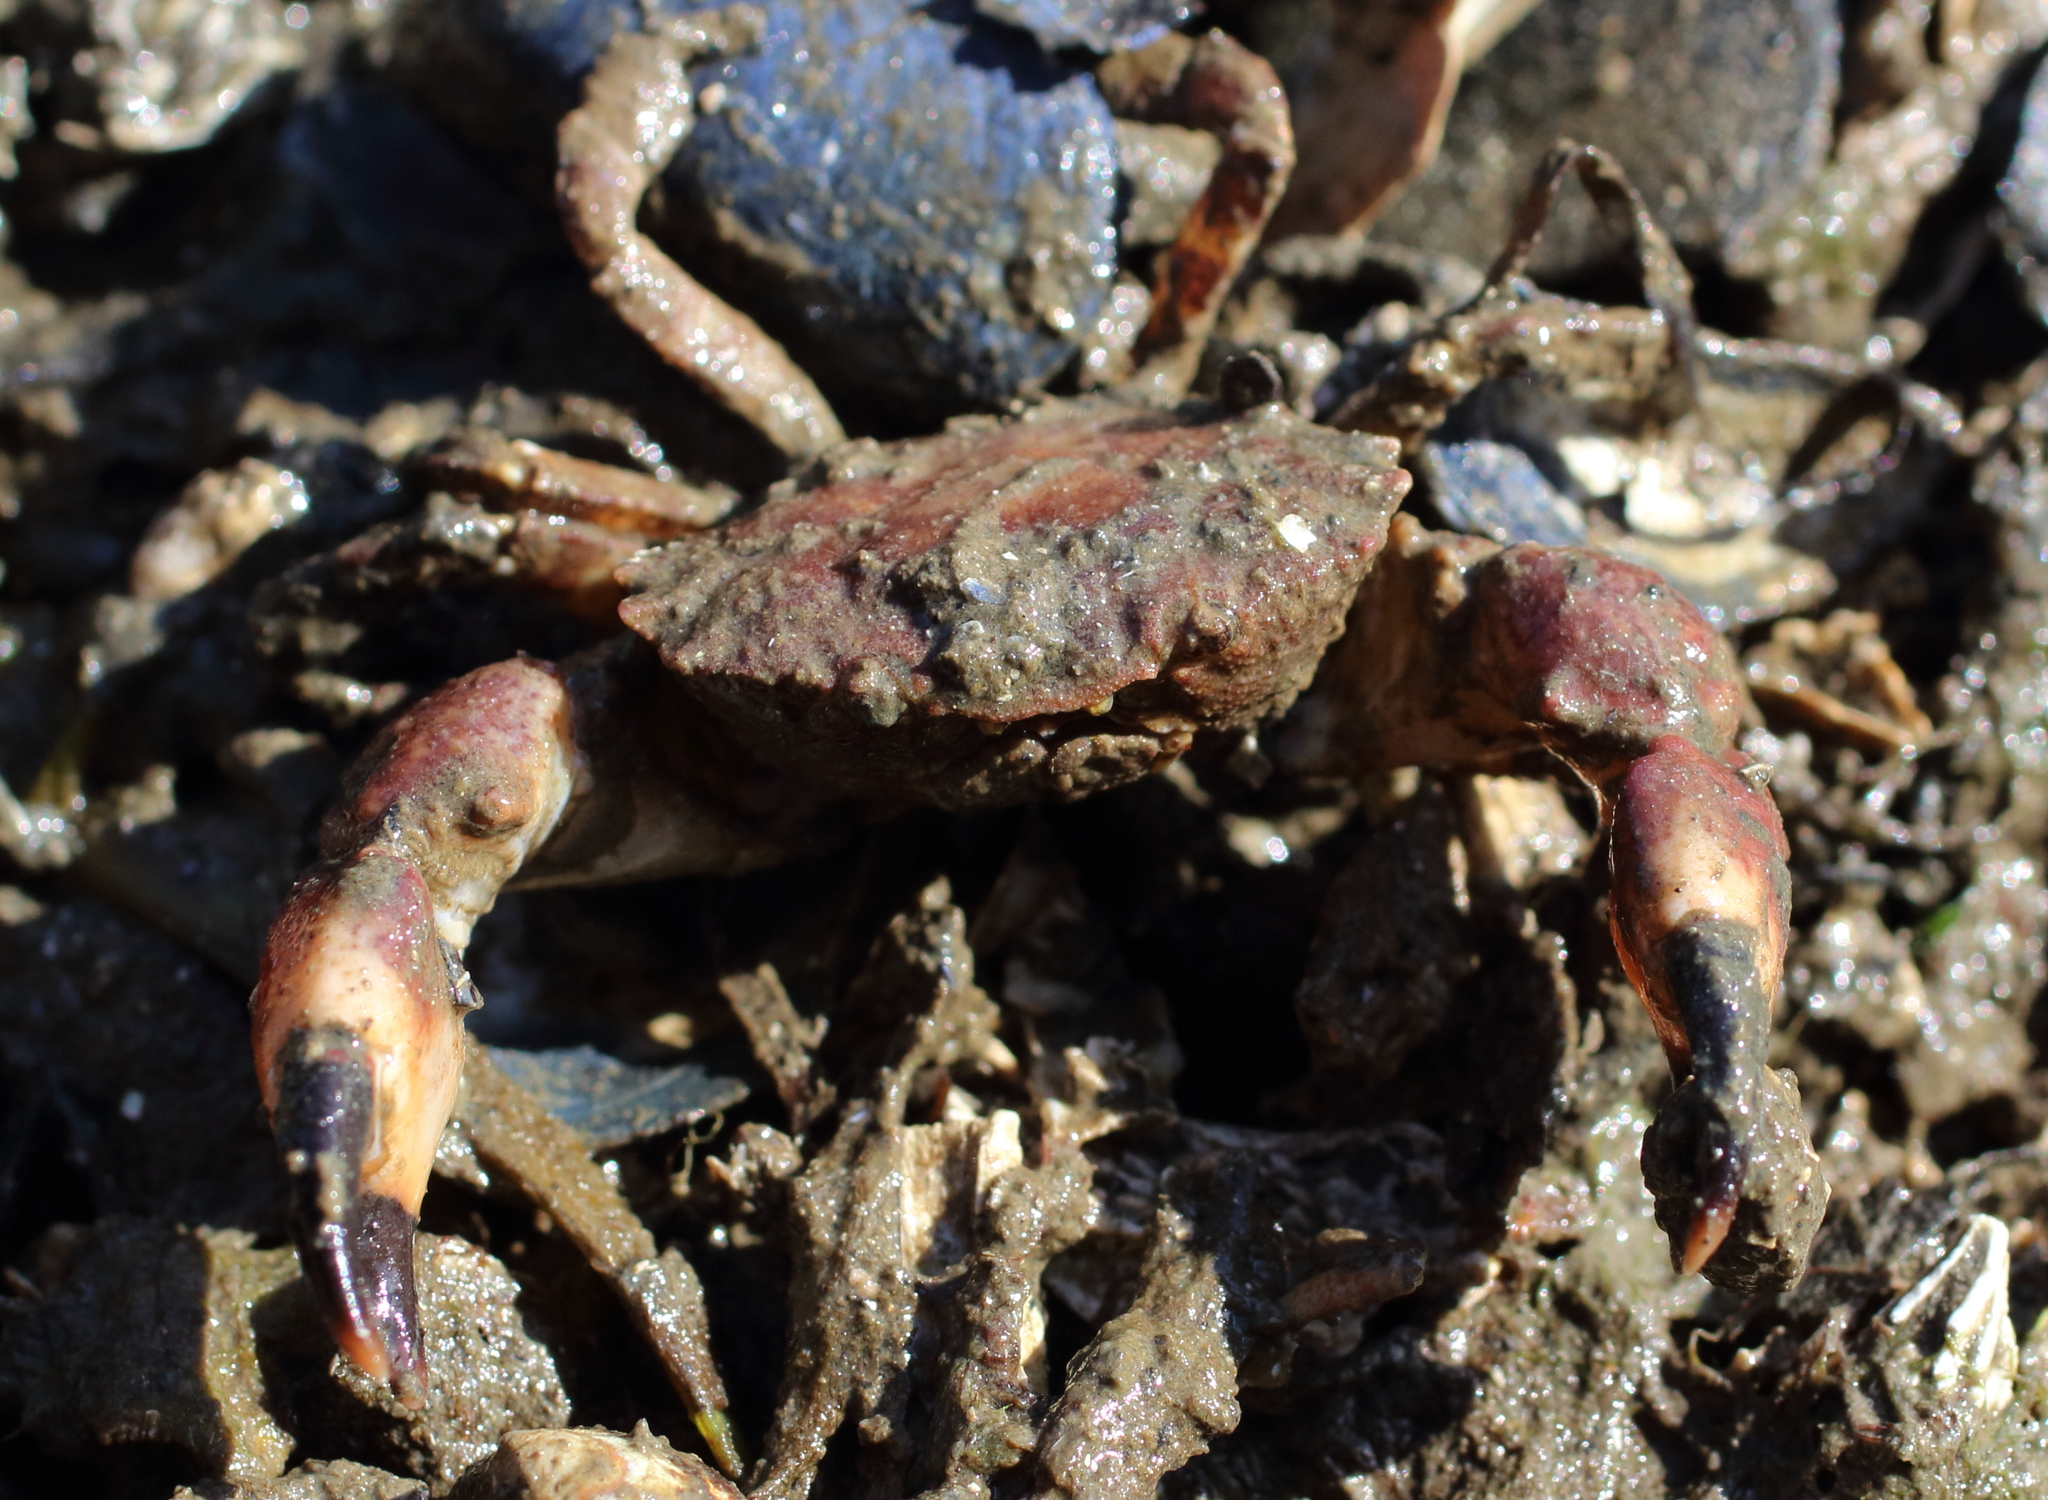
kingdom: Animalia
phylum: Arthropoda
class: Malacostraca
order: Decapoda
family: Panopeidae
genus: Lophopanopeus
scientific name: Lophopanopeus bellus
